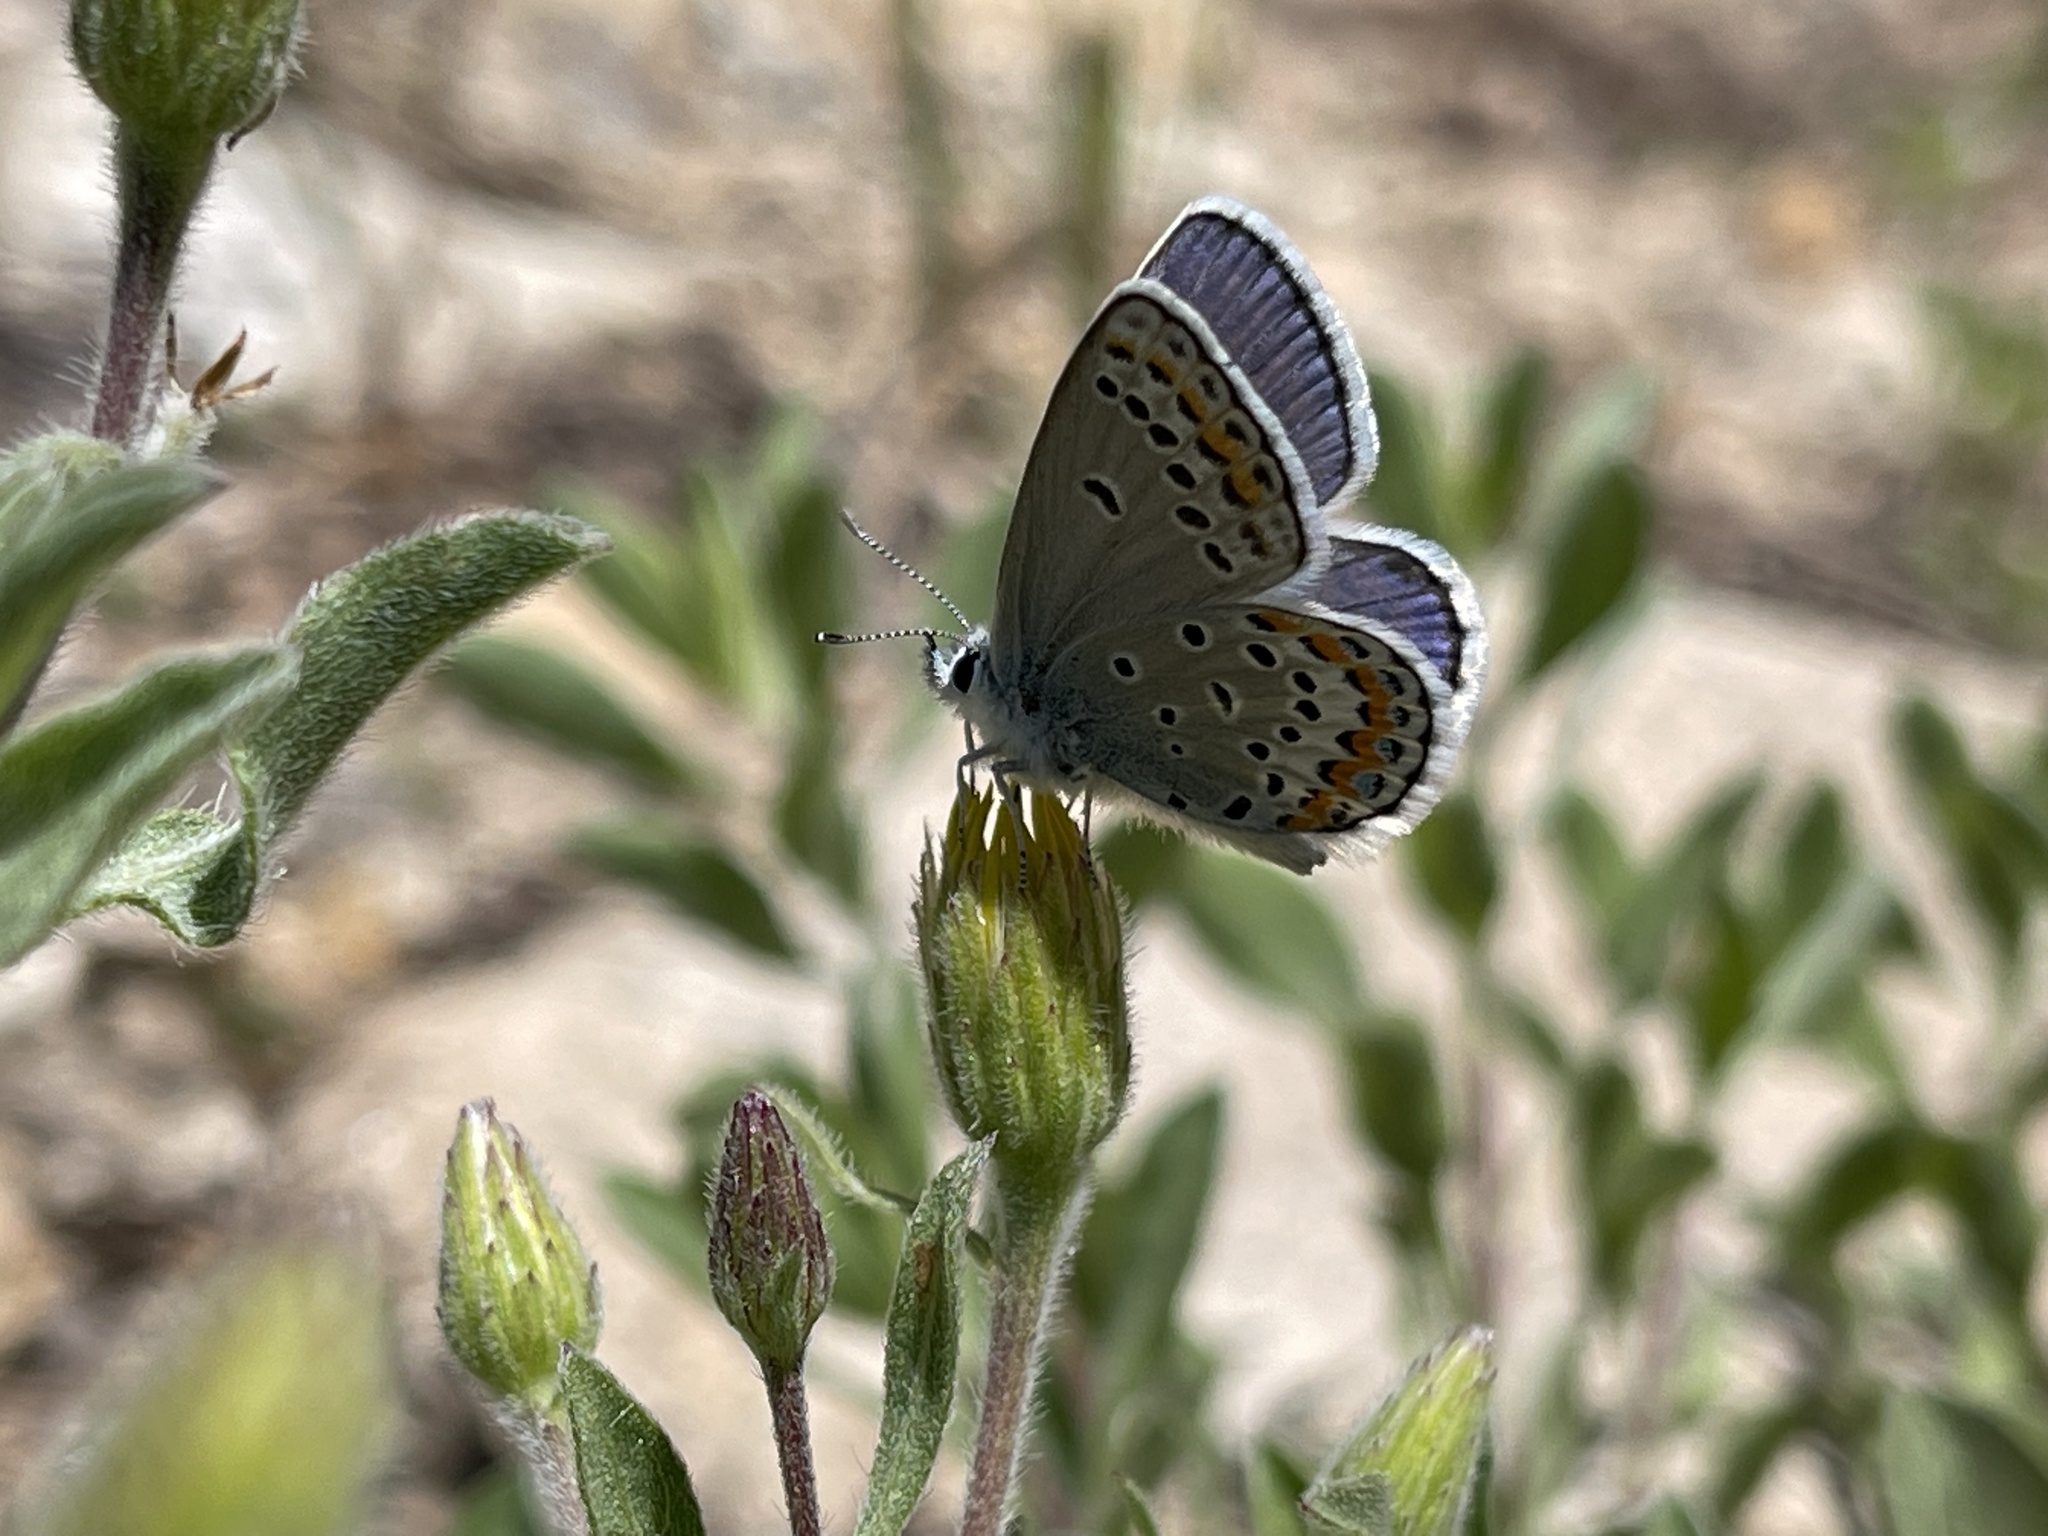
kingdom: Animalia
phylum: Arthropoda
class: Insecta
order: Lepidoptera
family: Lycaenidae
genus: Lycaeides
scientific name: Lycaeides melissa
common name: Melissa blue
